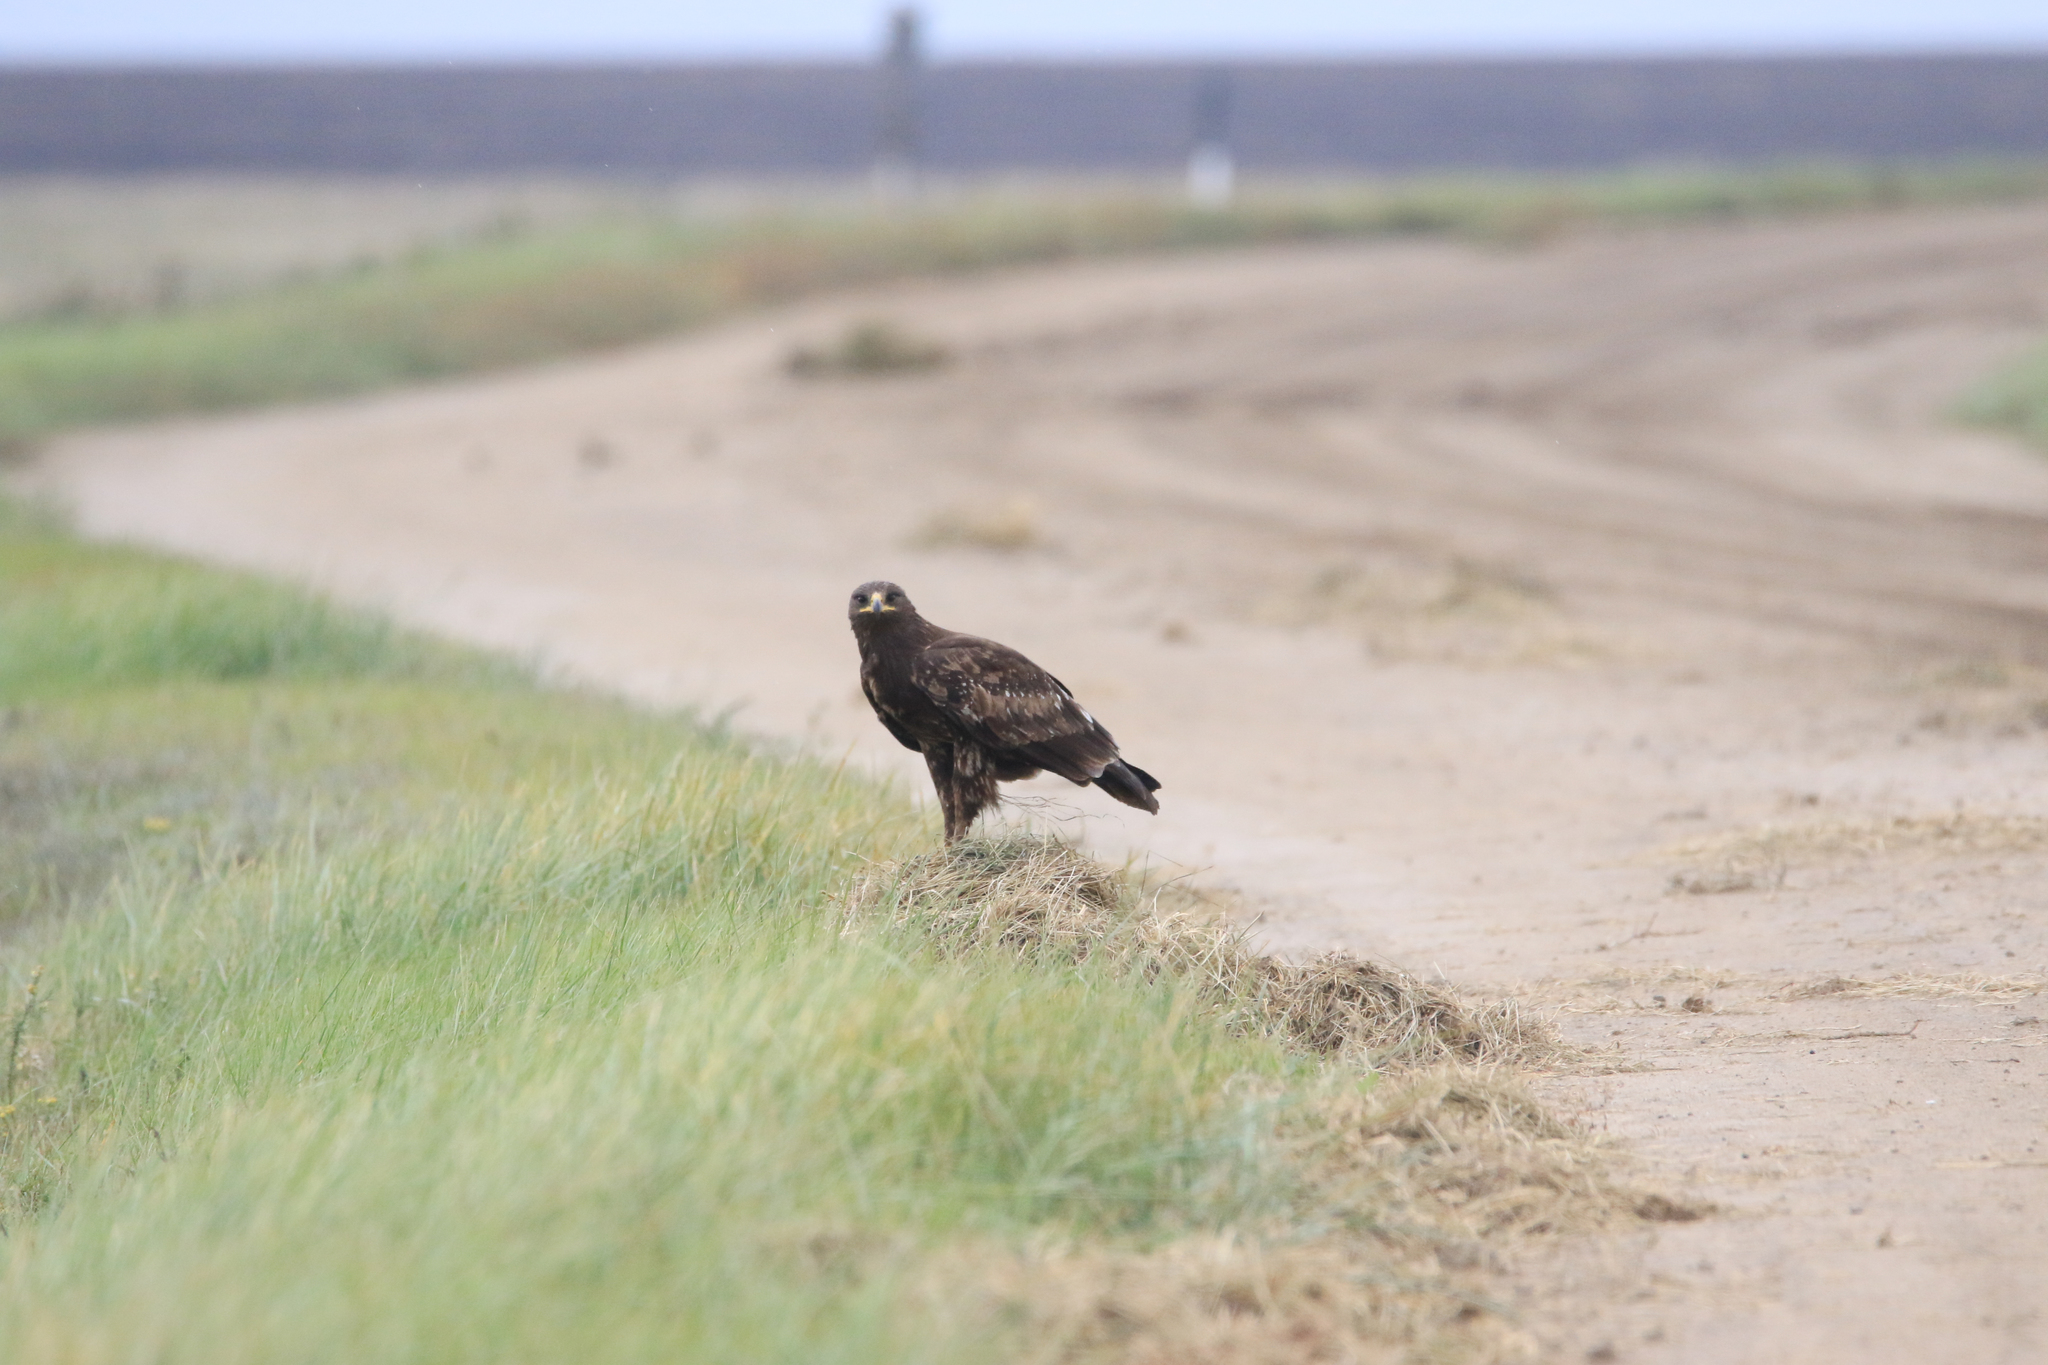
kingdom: Animalia
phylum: Chordata
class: Aves
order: Accipitriformes
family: Accipitridae
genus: Aquila
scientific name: Aquila clanga
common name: Greater spotted eagle
